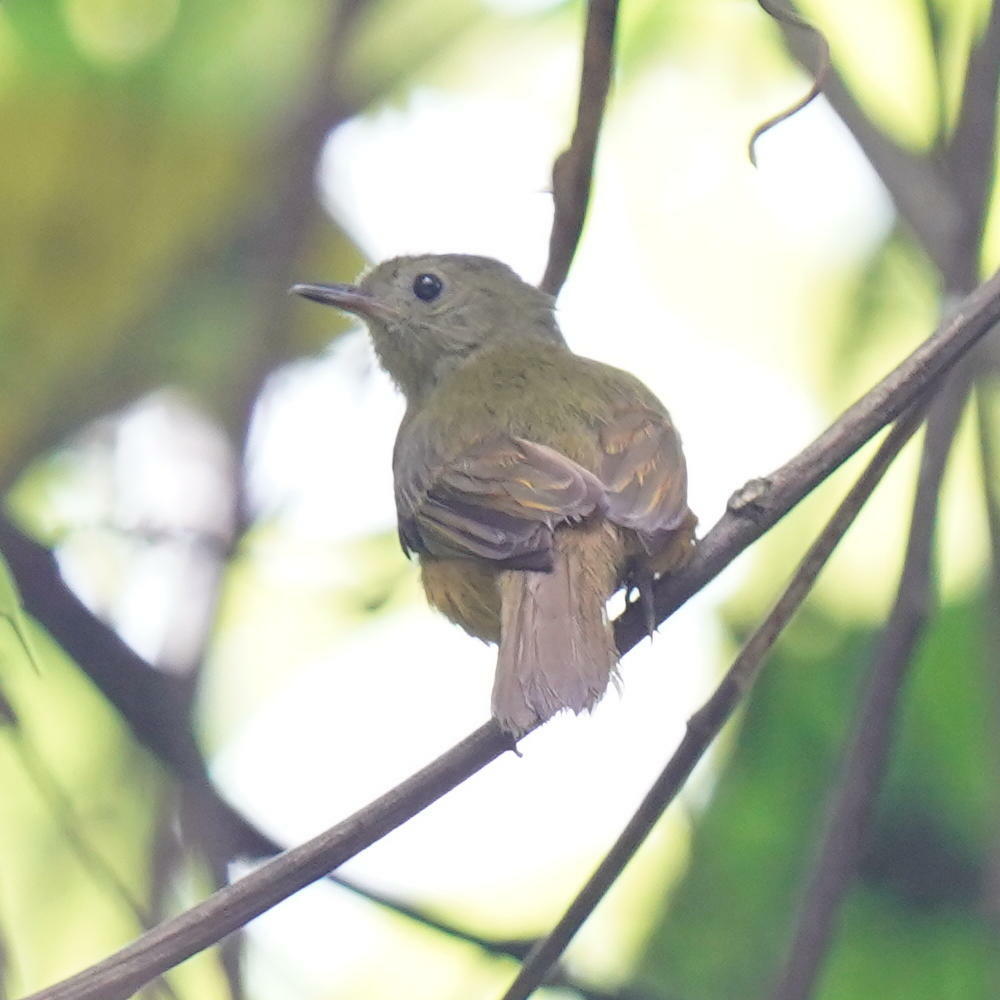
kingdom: Animalia
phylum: Chordata
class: Aves
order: Passeriformes
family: Tyrannidae
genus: Mionectes
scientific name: Mionectes oleagineus
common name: Ochre-bellied flycatcher
